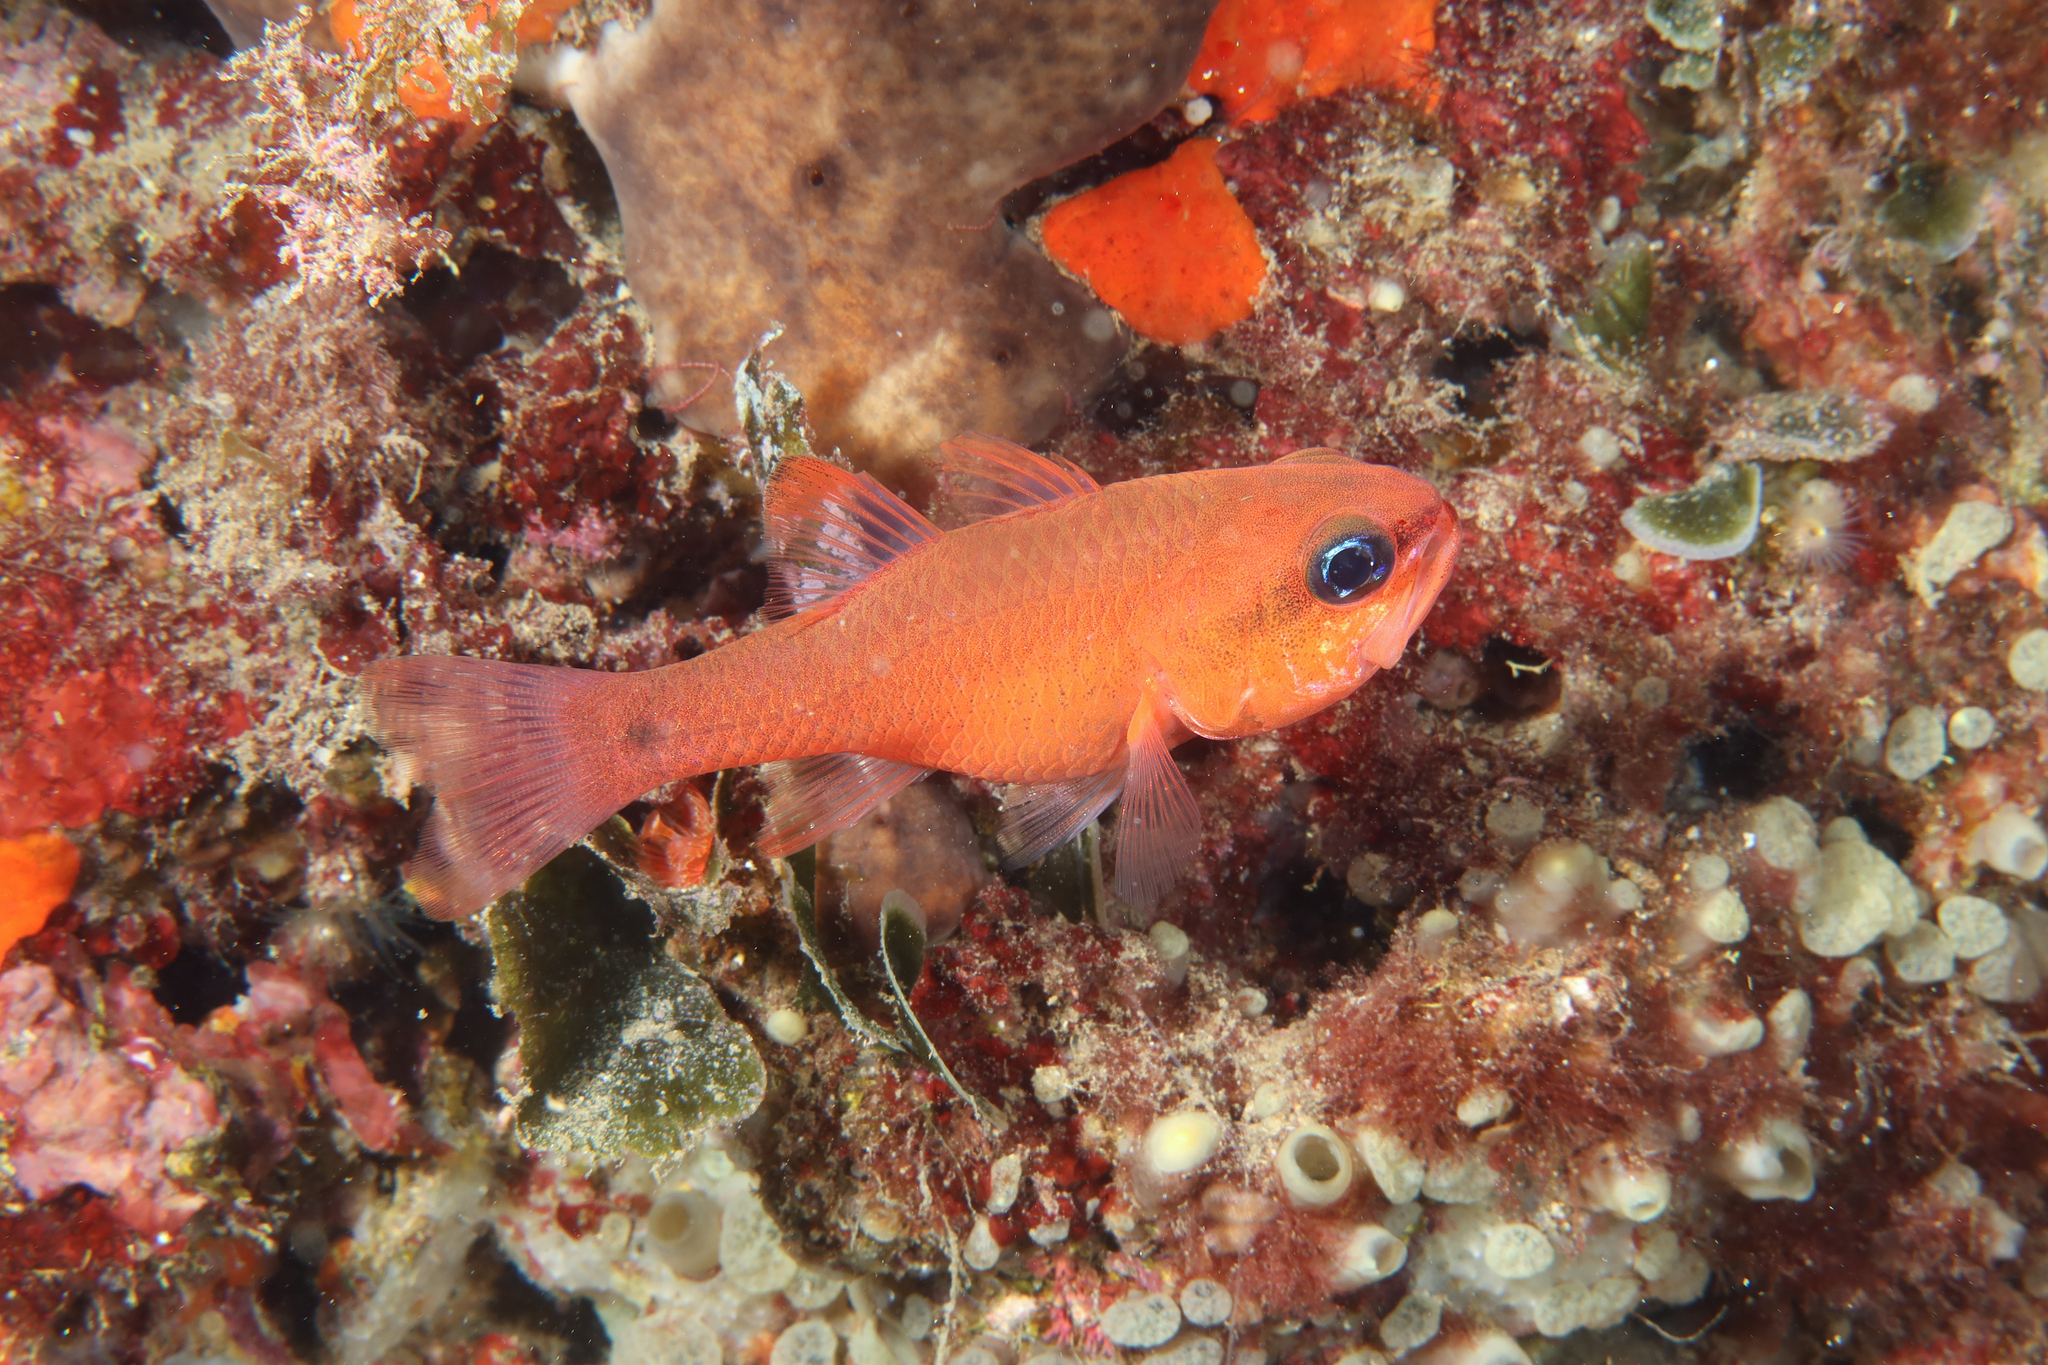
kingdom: Animalia
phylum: Chordata
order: Perciformes
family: Apogonidae
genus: Apogon
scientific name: Apogon imberbis
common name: Cardinal fish
